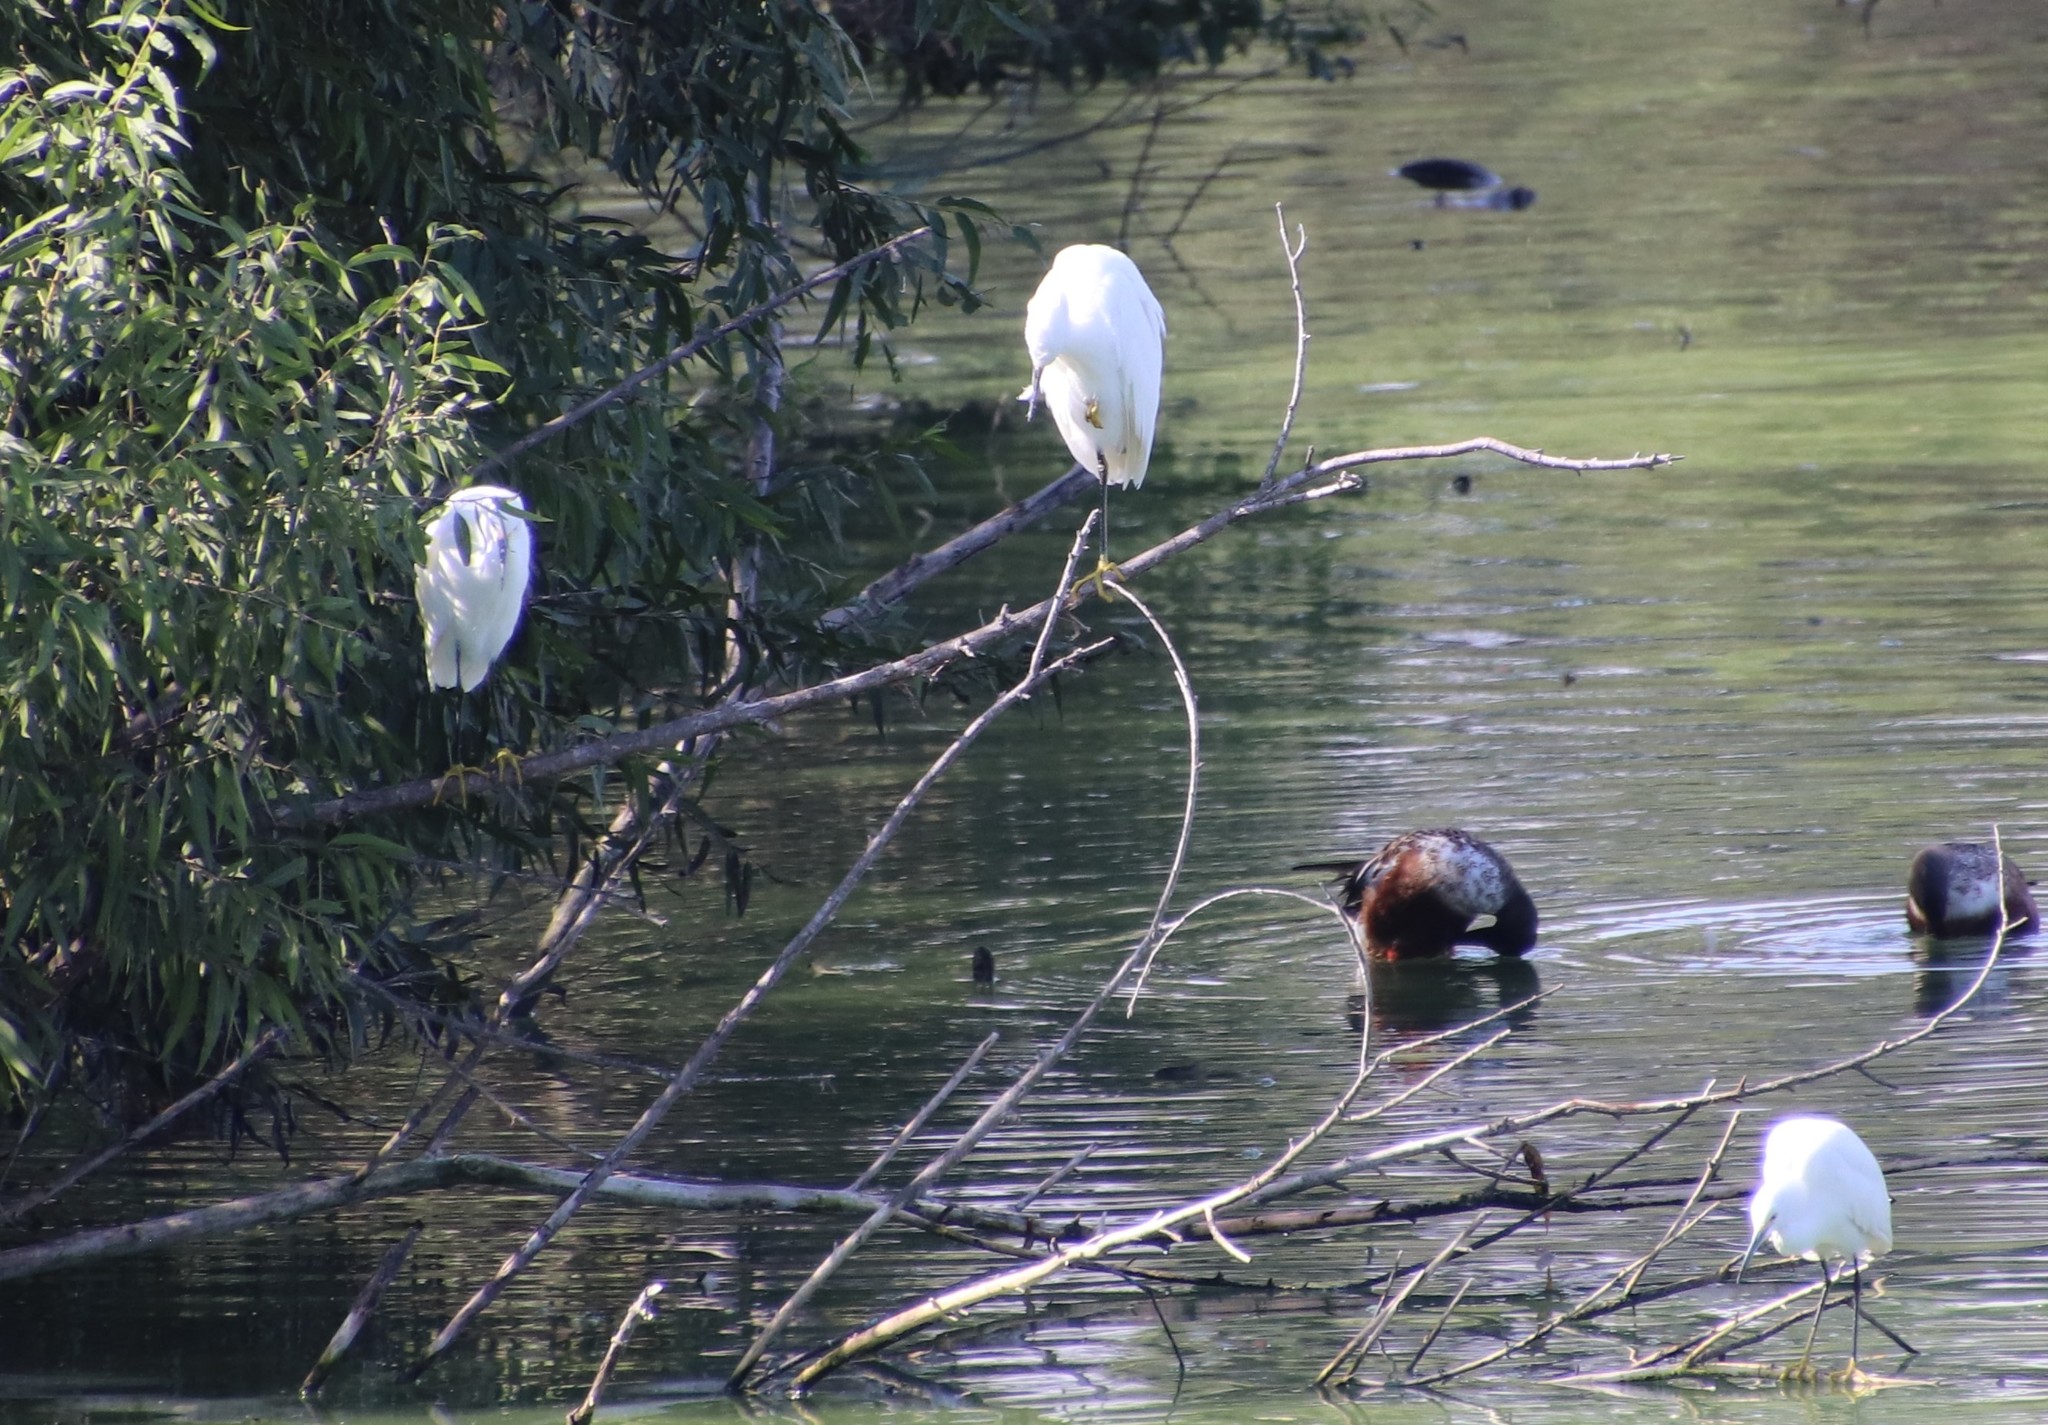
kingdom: Animalia
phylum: Chordata
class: Aves
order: Pelecaniformes
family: Ardeidae
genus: Egretta
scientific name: Egretta thula
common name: Snowy egret
